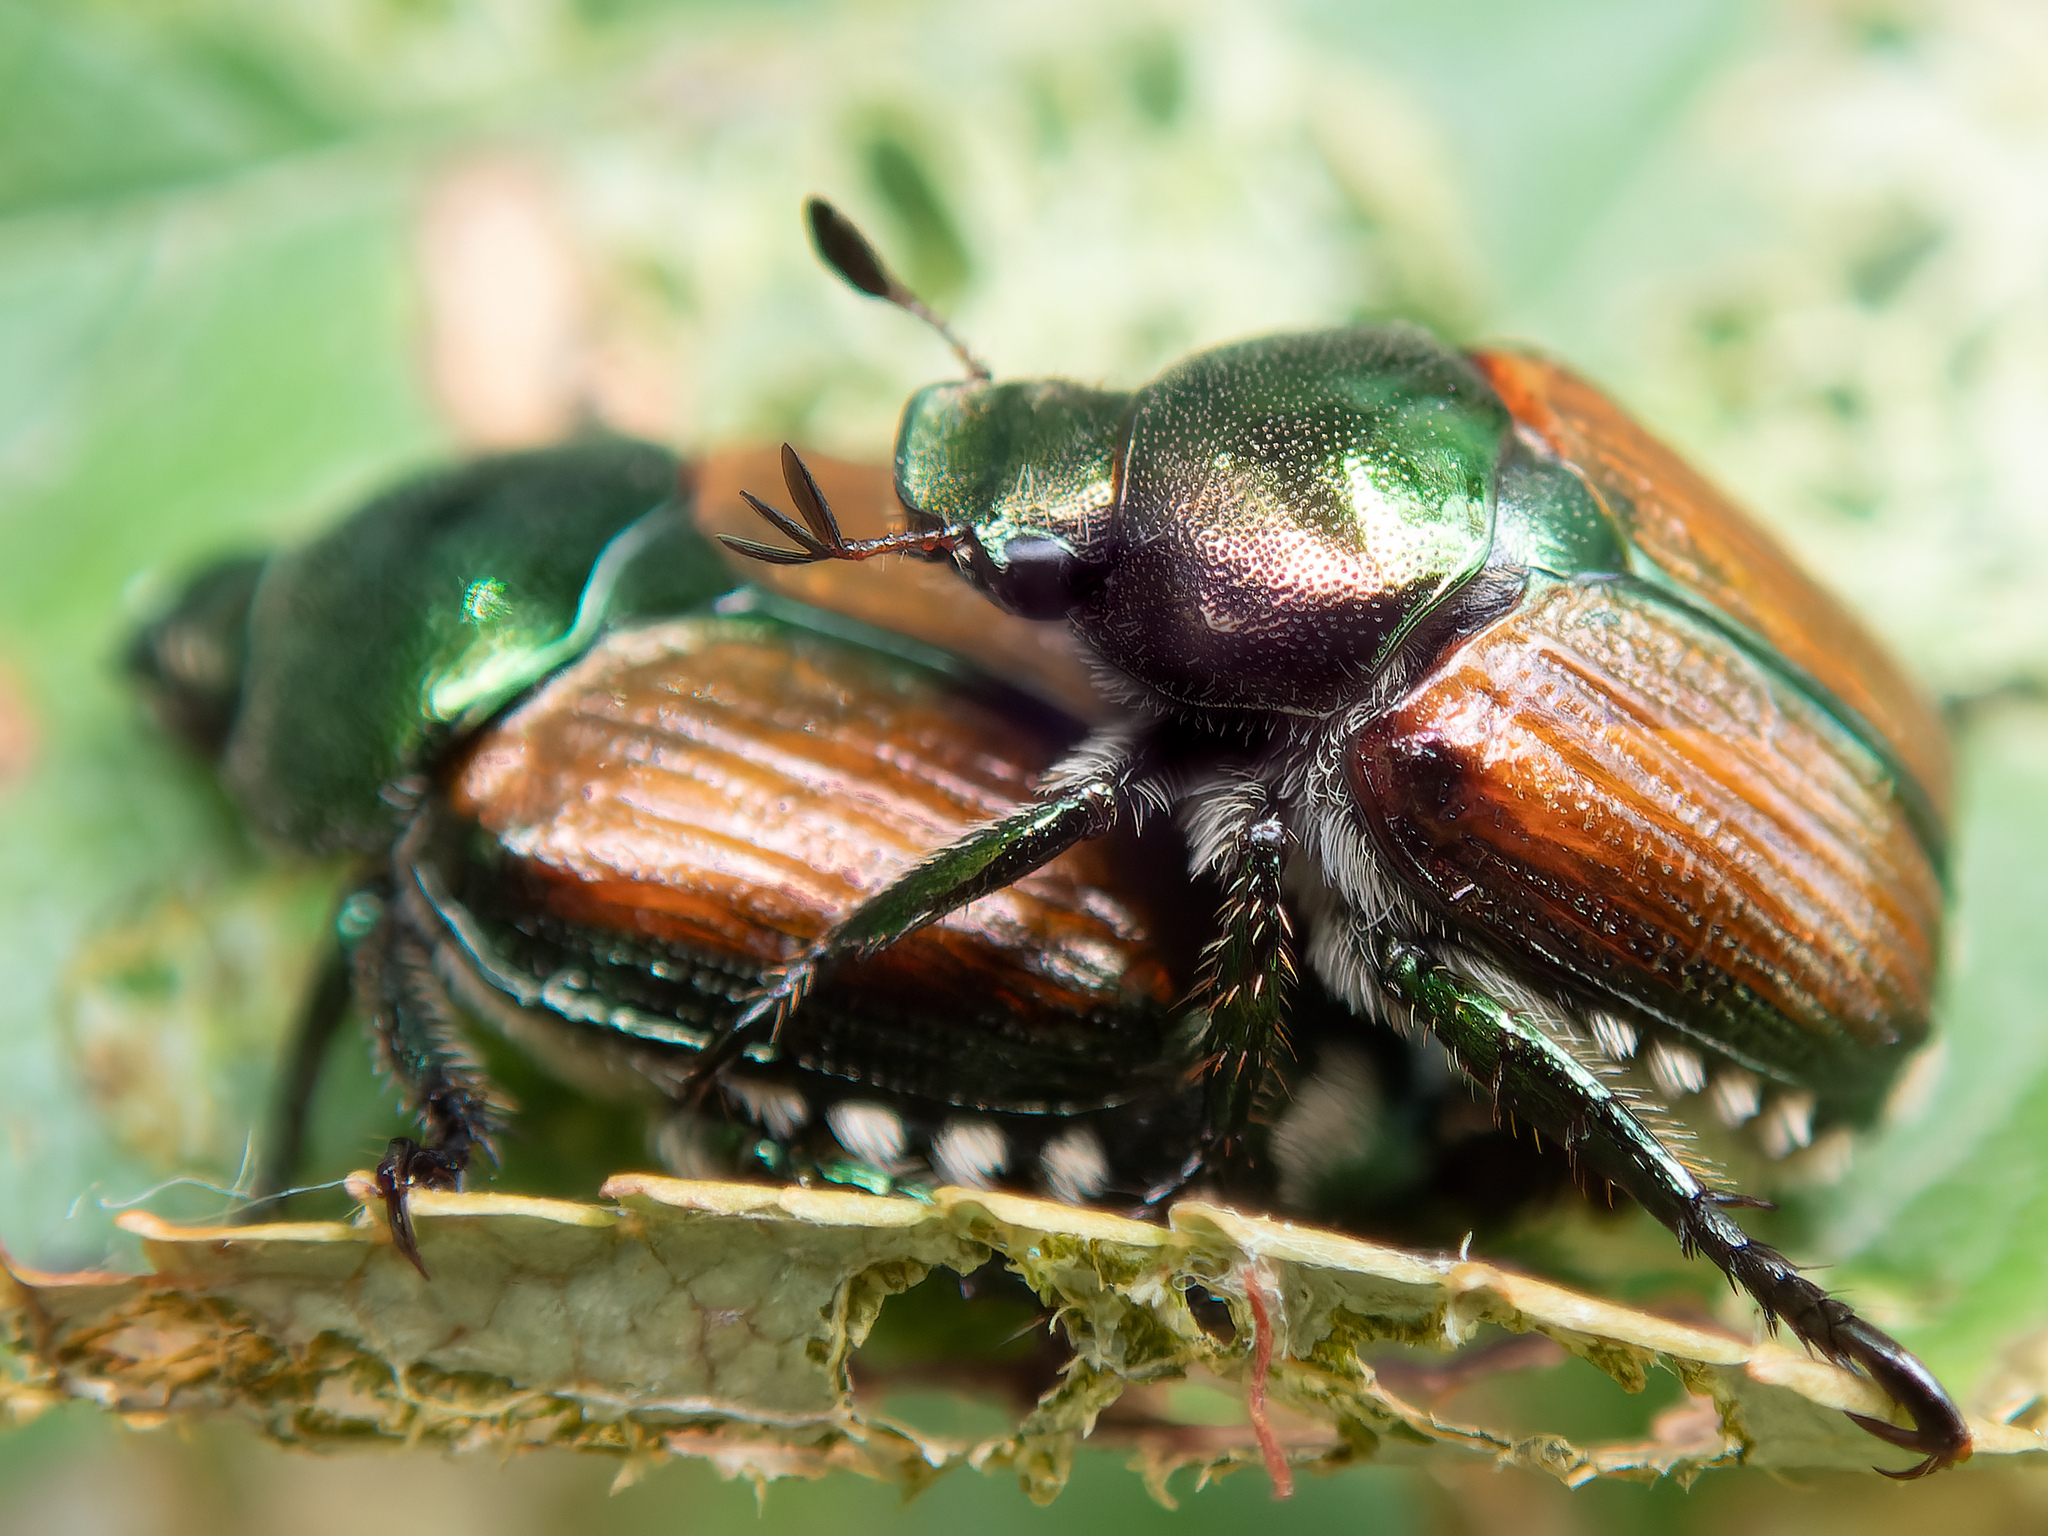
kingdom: Animalia
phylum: Arthropoda
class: Insecta
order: Coleoptera
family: Scarabaeidae
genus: Popillia
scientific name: Popillia japonica
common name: Japanese beetle
